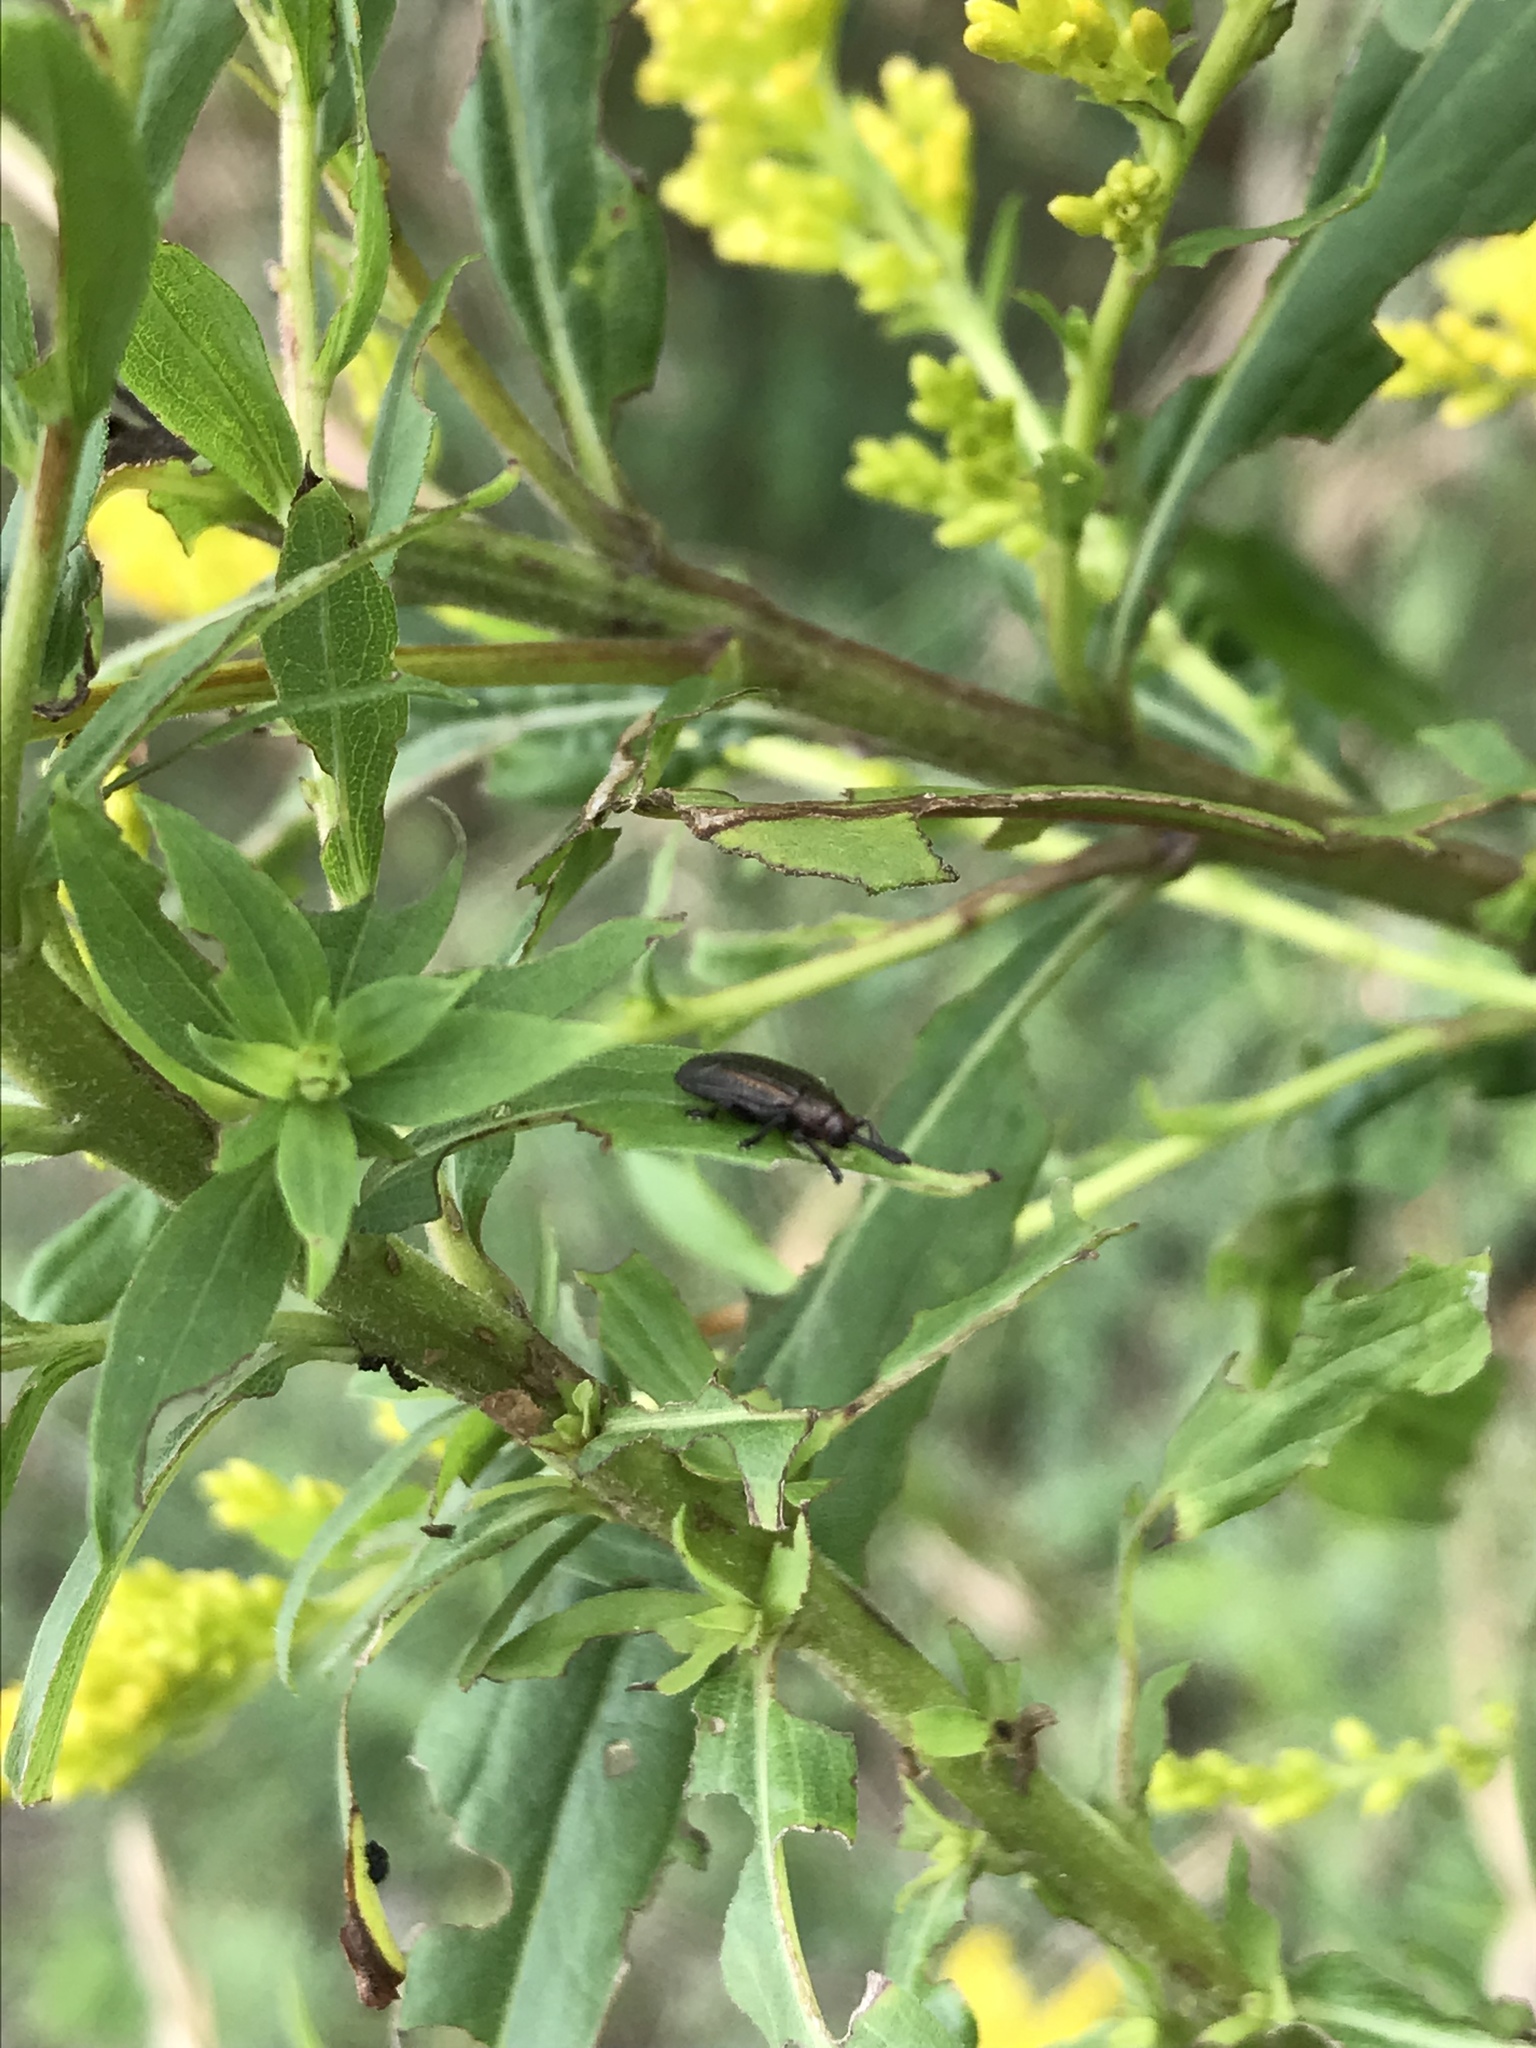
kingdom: Animalia
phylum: Arthropoda
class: Insecta
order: Coleoptera
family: Chrysomelidae
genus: Microrhopala
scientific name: Microrhopala vittata
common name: Goldenrod leaf miner beetle
